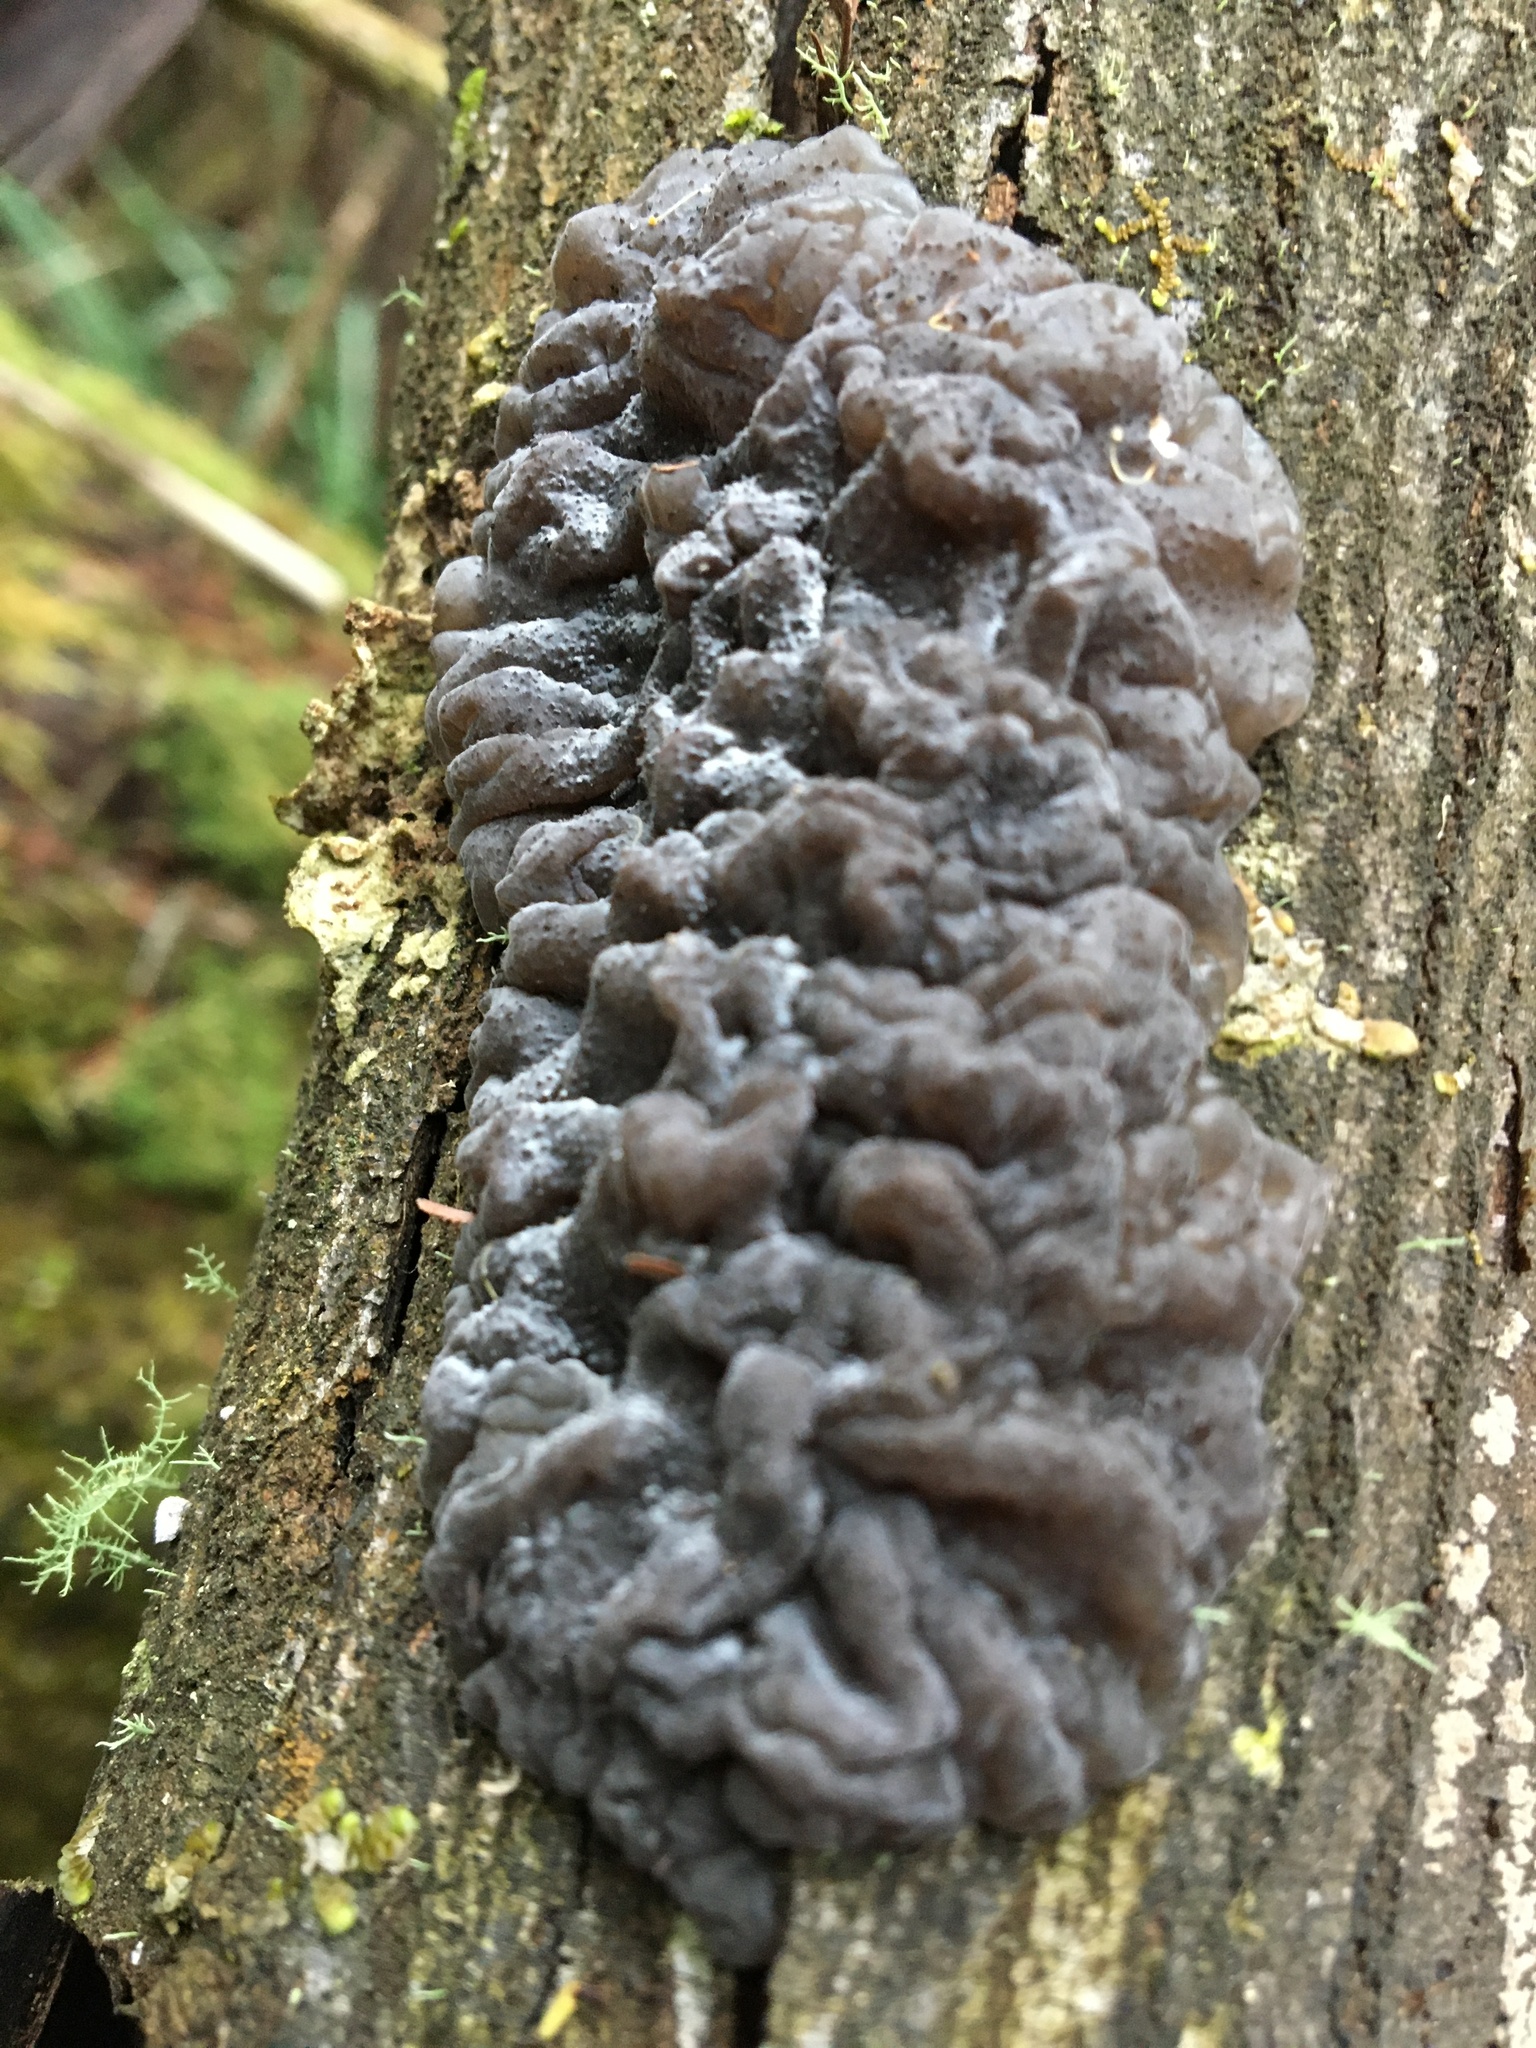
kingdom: Fungi
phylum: Basidiomycota
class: Agaricomycetes
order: Auriculariales
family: Auriculariaceae
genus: Exidia
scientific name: Exidia glandulosa
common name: Witches' butter
